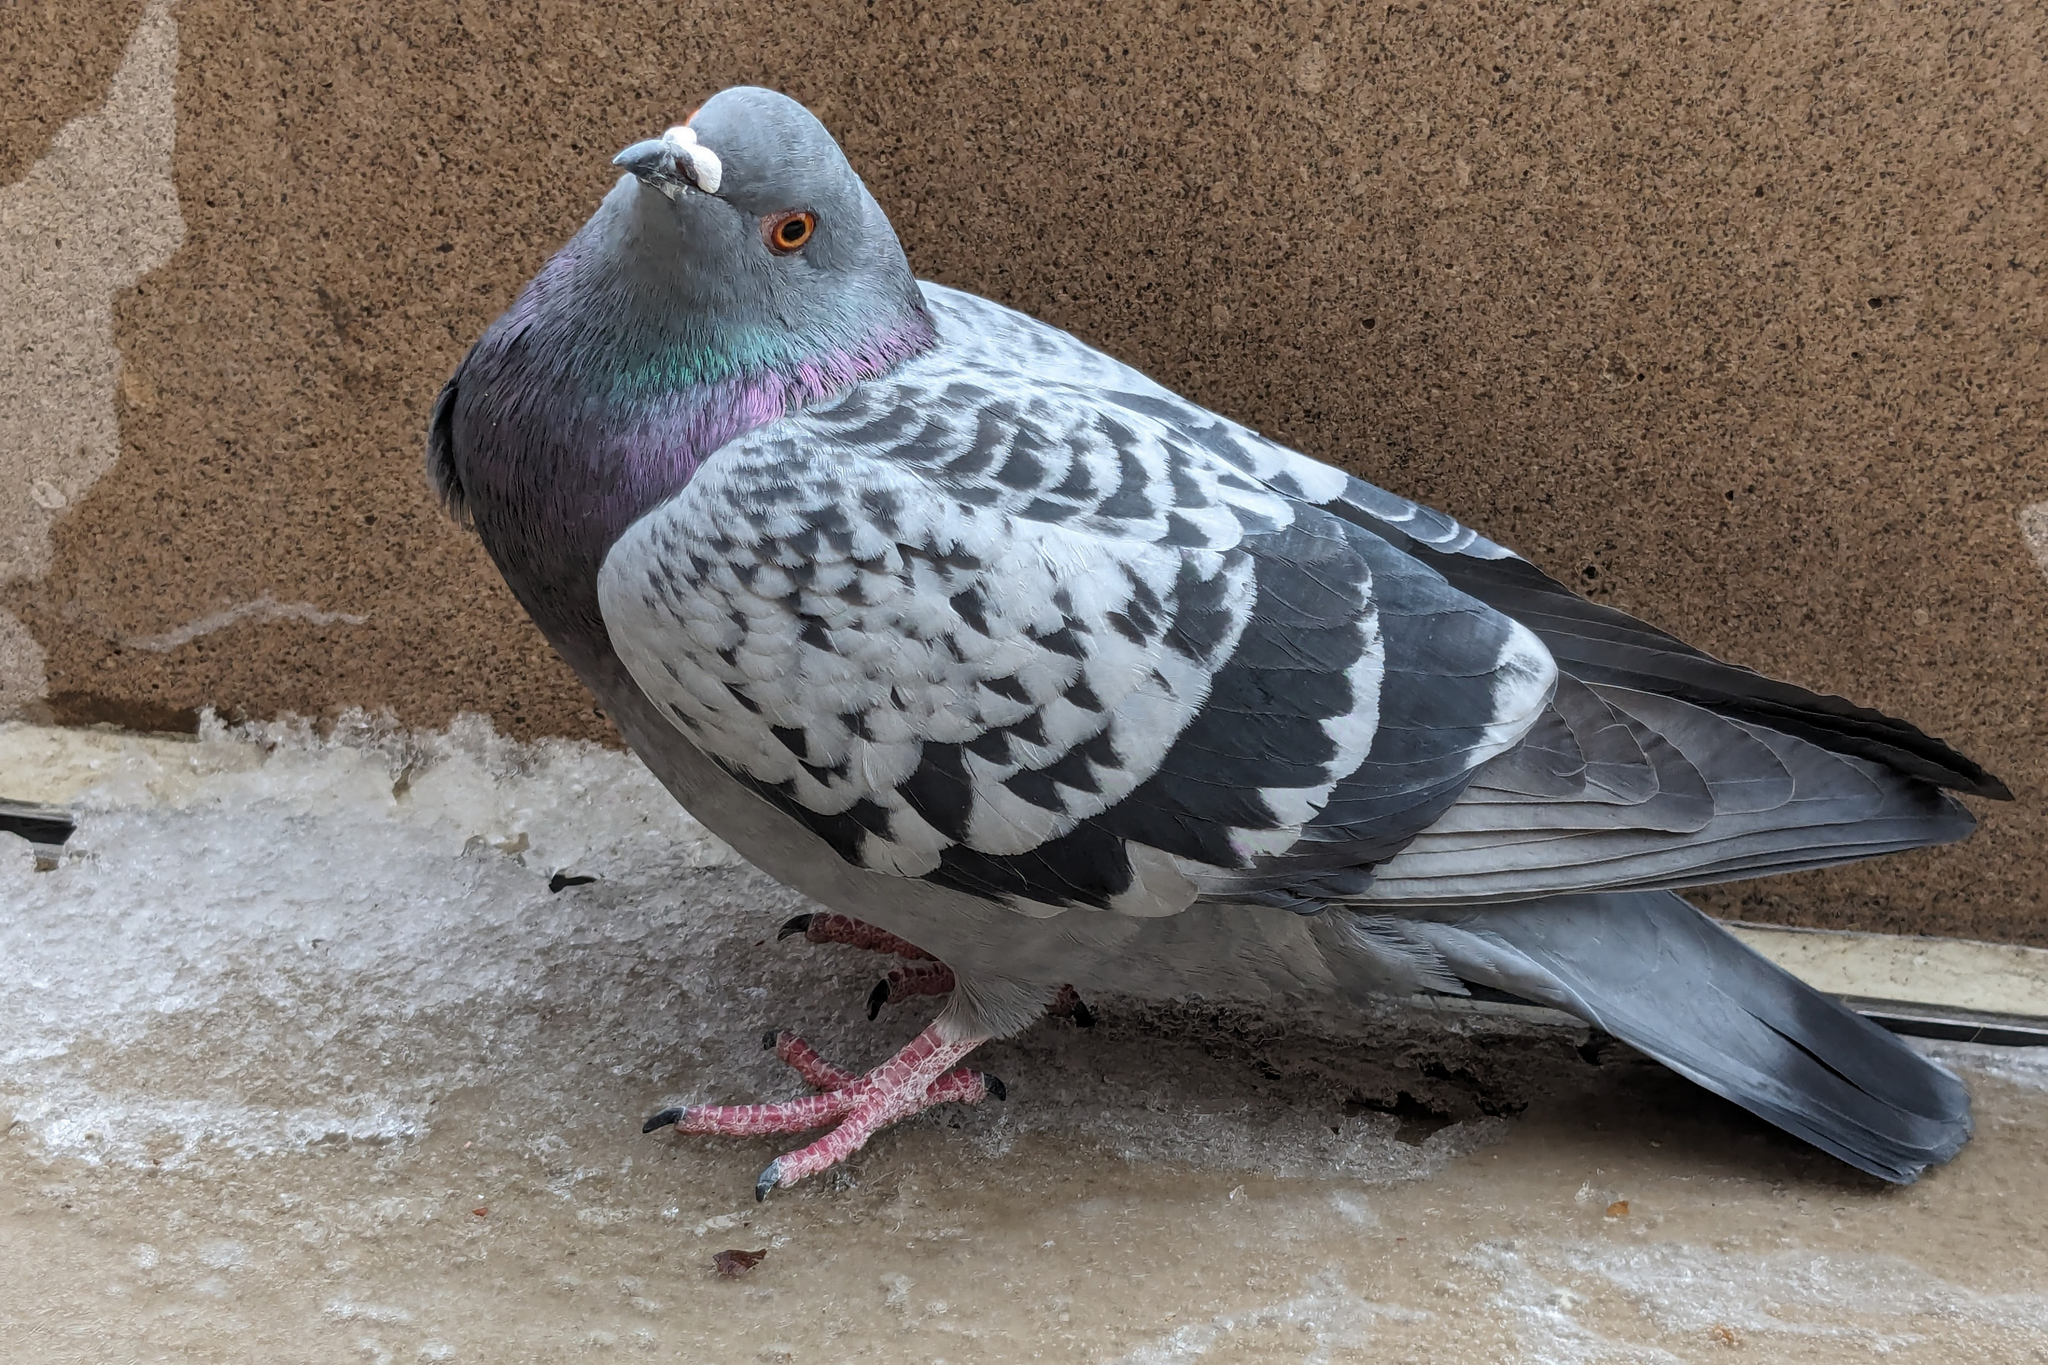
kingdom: Animalia
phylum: Chordata
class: Aves
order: Columbiformes
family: Columbidae
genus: Columba
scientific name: Columba livia
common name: Rock pigeon
